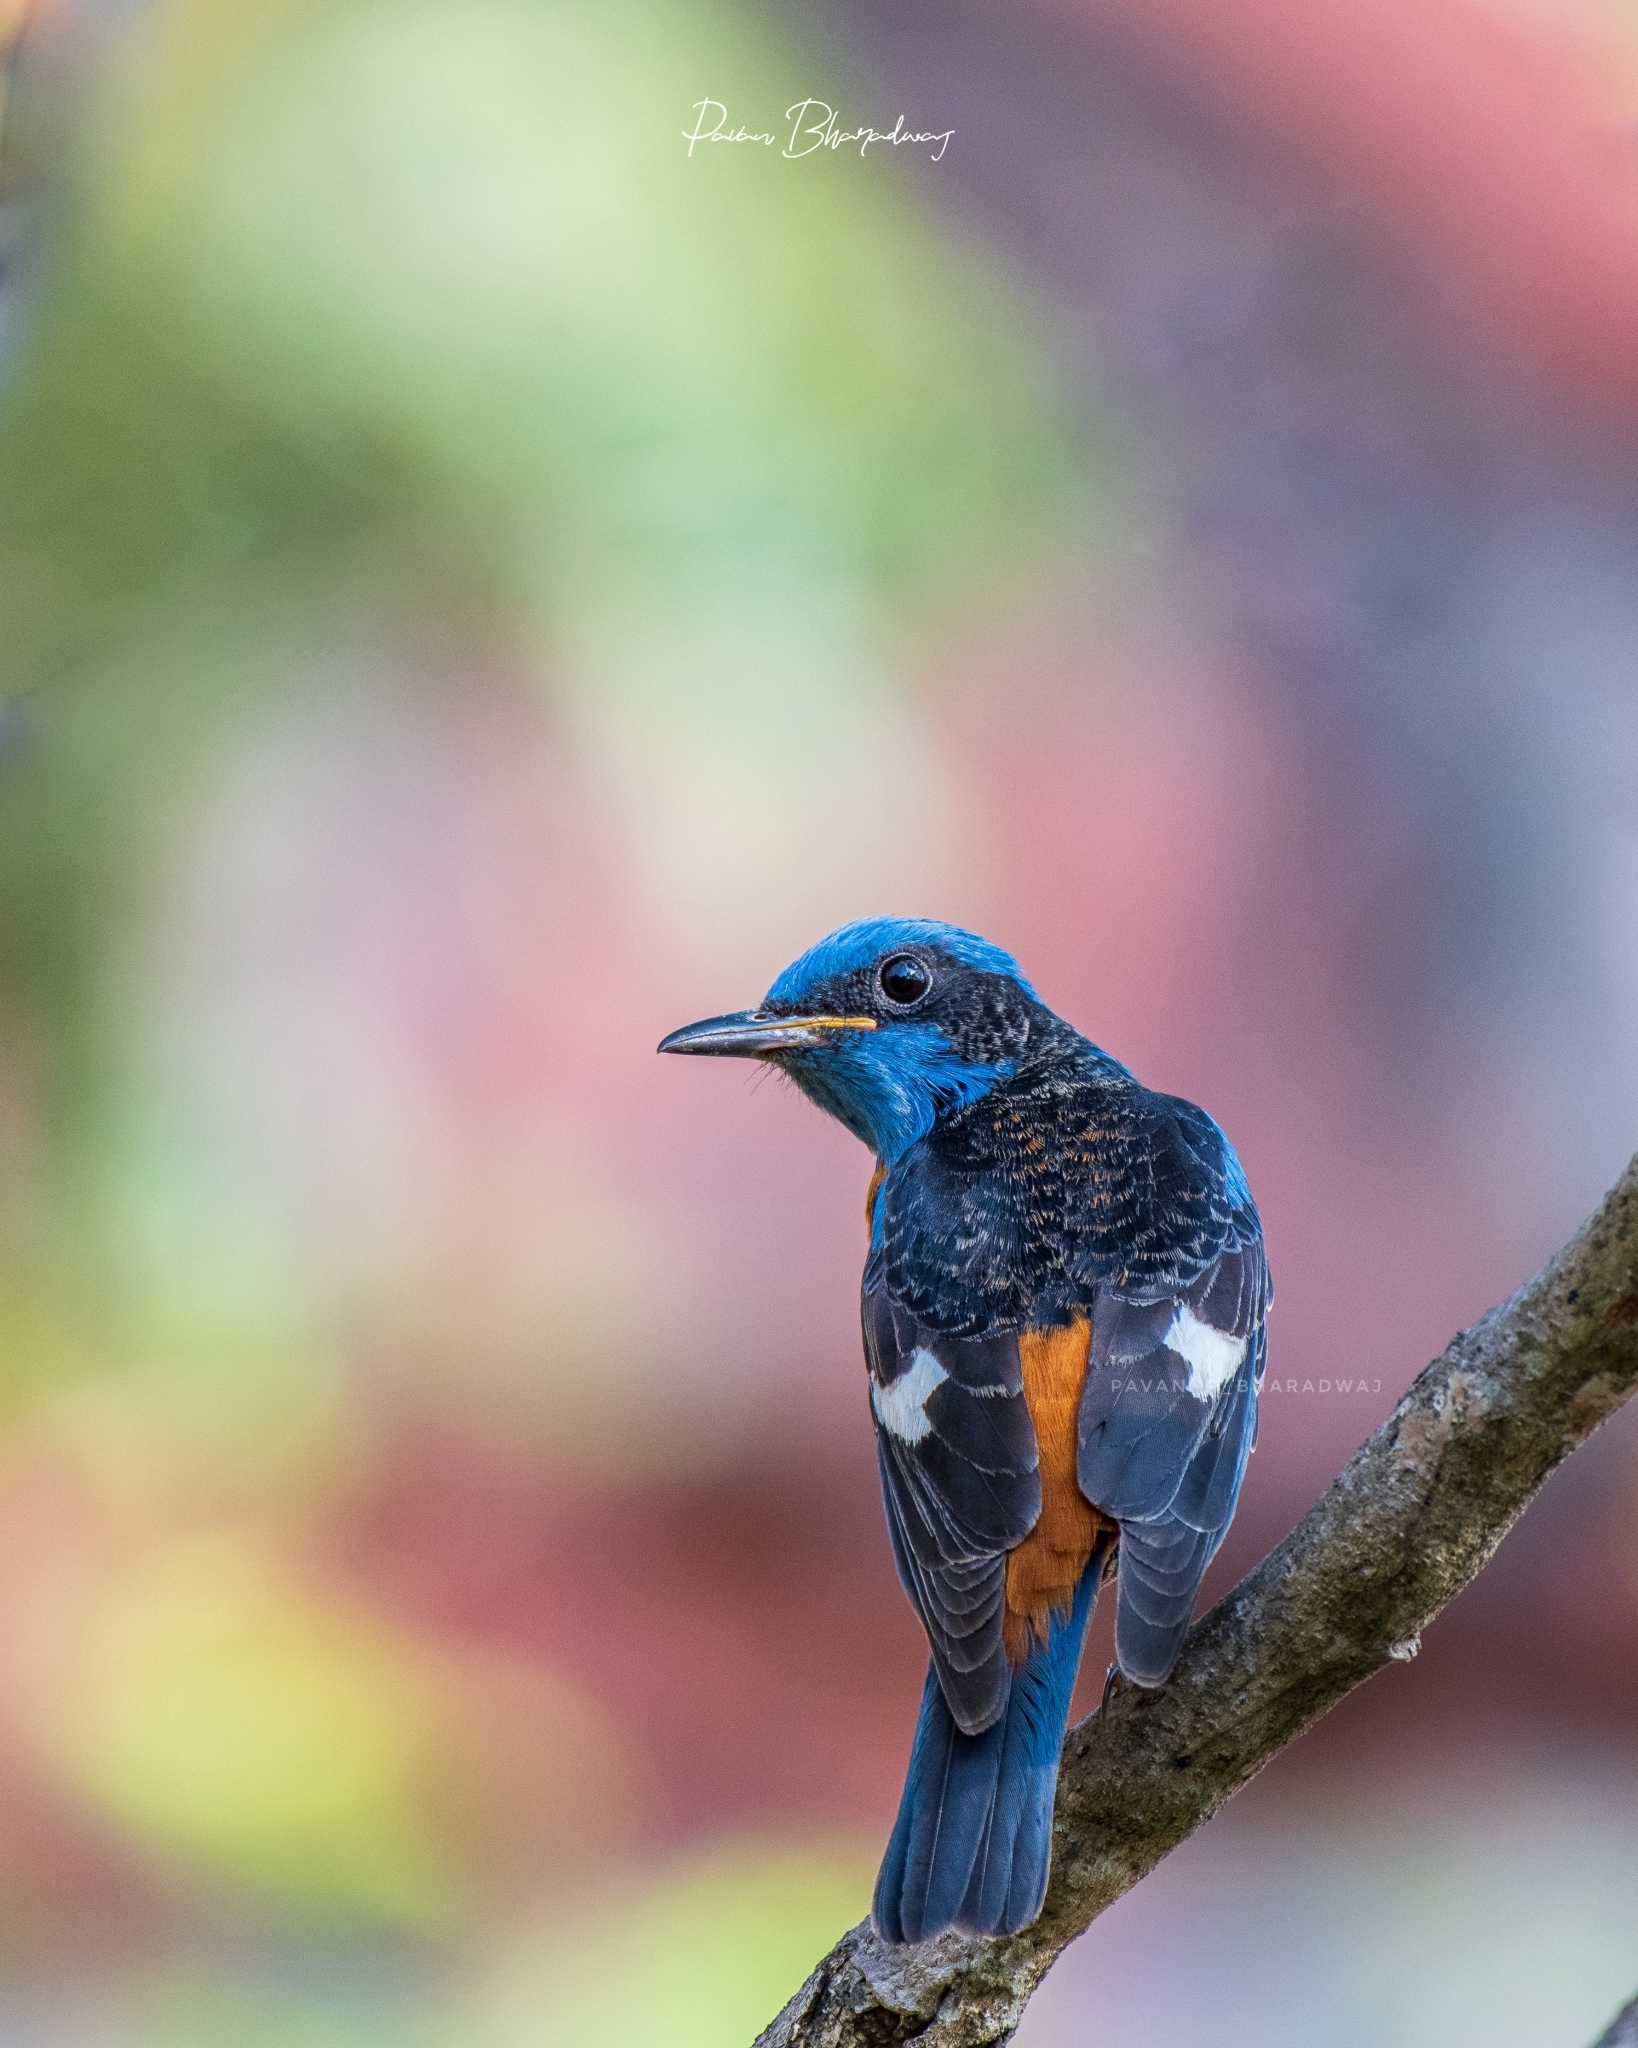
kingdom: Animalia
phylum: Chordata
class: Aves
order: Passeriformes
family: Muscicapidae
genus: Monticola
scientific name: Monticola cinclorhynchus
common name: Blue-capped rock thrush
